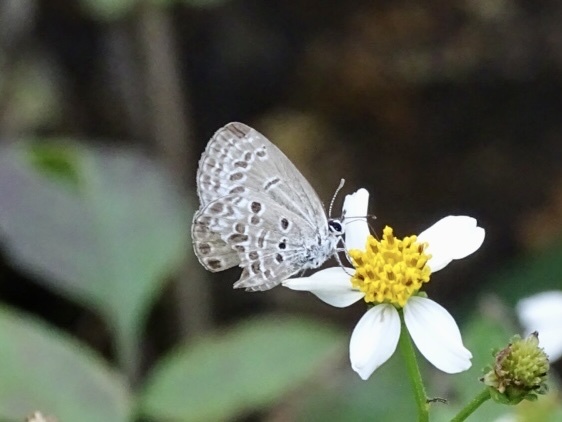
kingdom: Animalia
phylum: Arthropoda
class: Insecta
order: Lepidoptera
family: Lycaenidae
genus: Chilades
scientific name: Chilades laius
